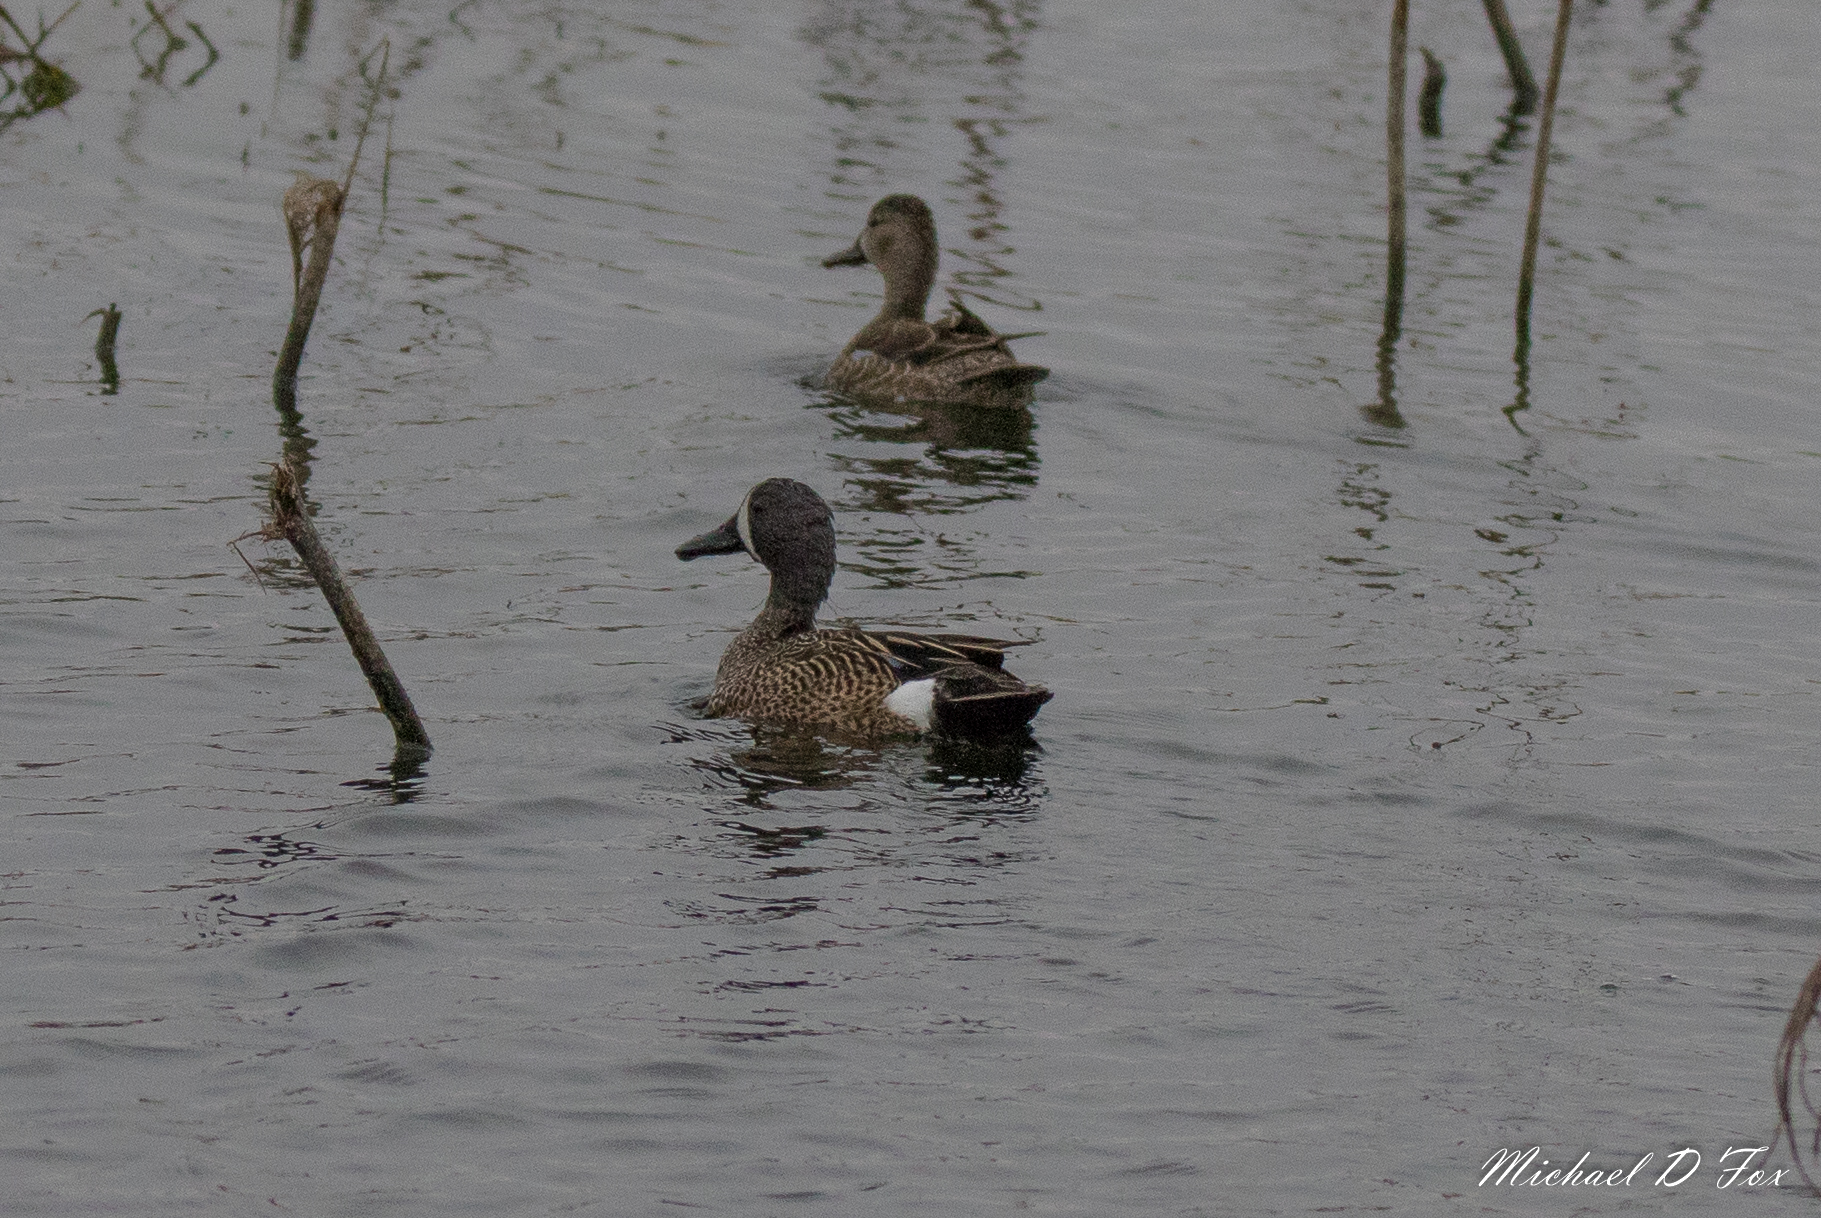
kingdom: Animalia
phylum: Chordata
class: Aves
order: Anseriformes
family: Anatidae
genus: Spatula
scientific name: Spatula discors
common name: Blue-winged teal
